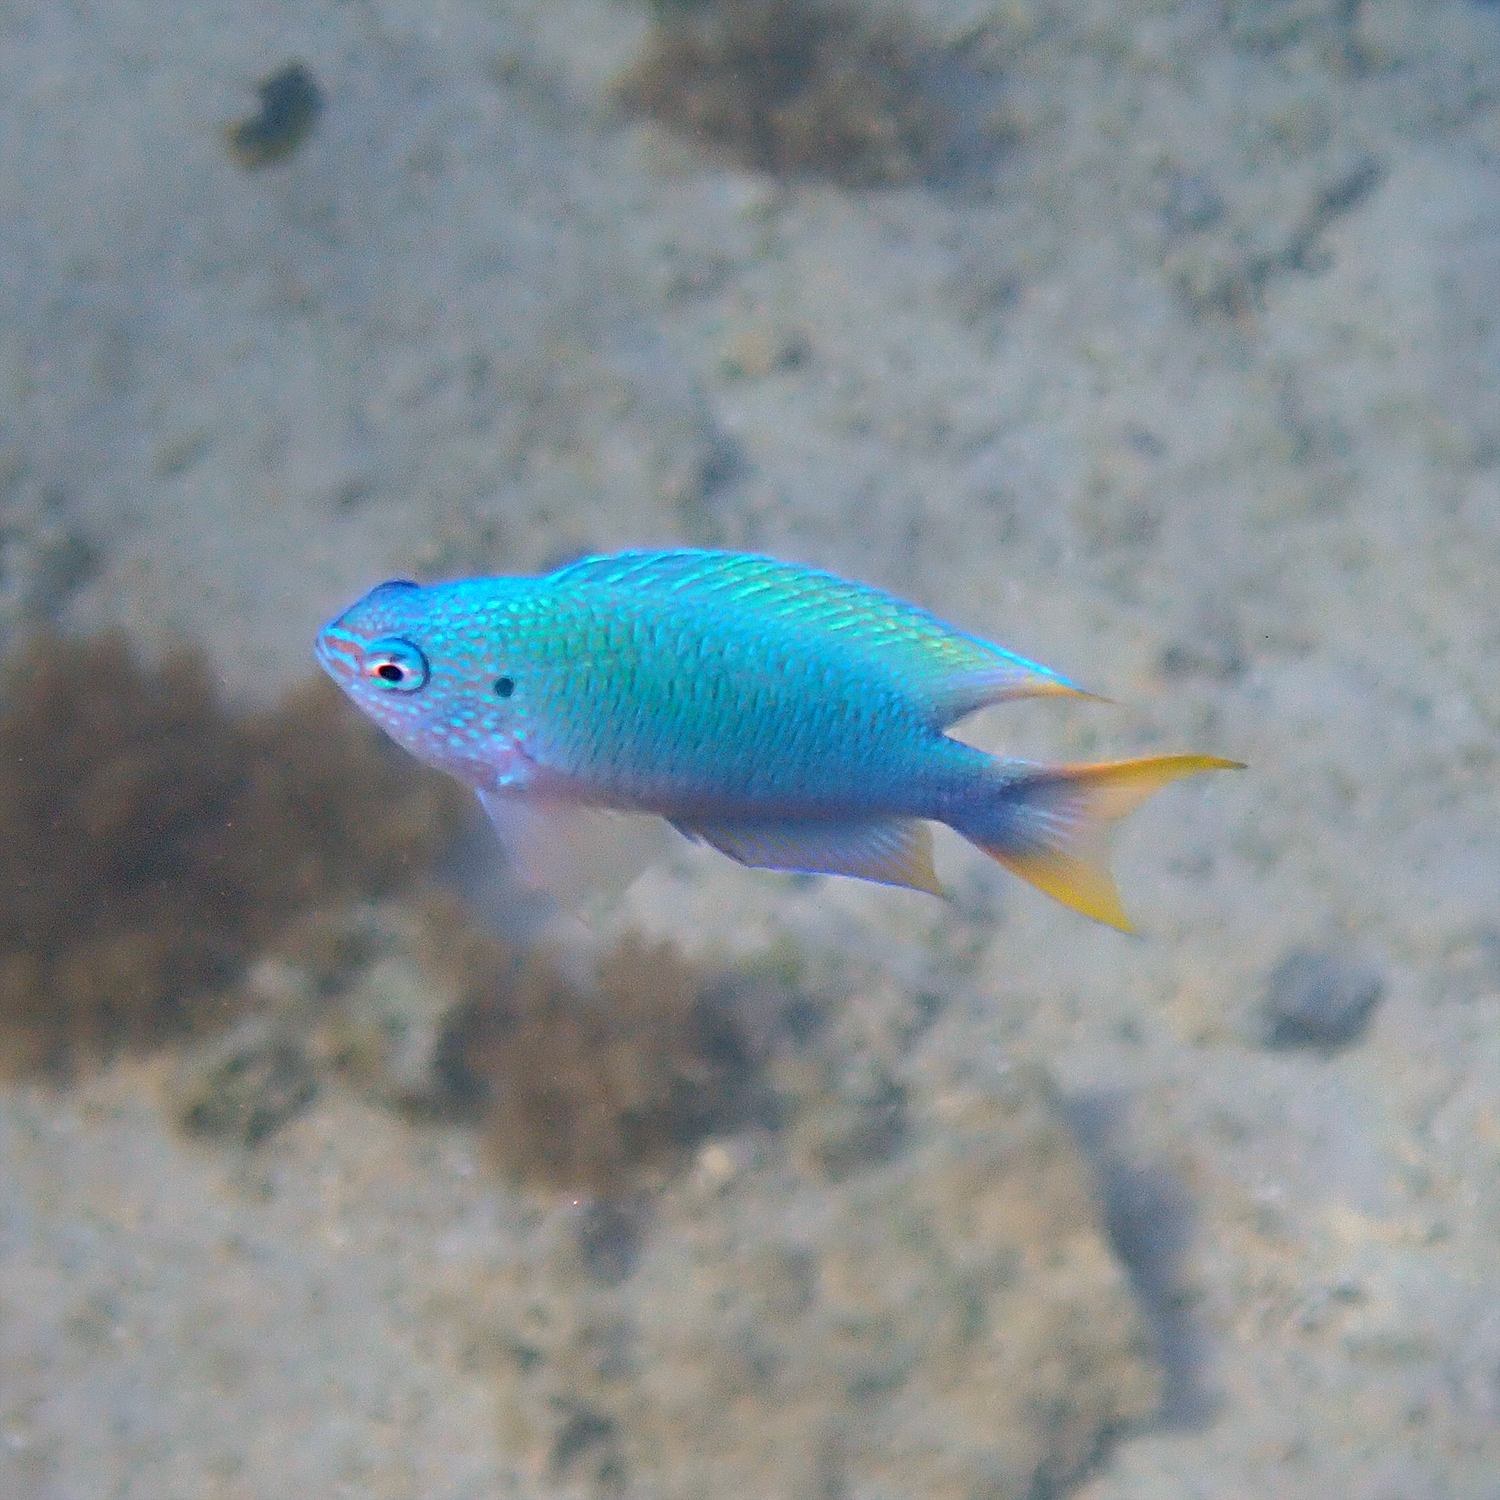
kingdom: Animalia
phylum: Chordata
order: Perciformes
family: Pomacentridae
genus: Pomacentrus
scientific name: Pomacentrus pavo
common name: Sapphire damsel
